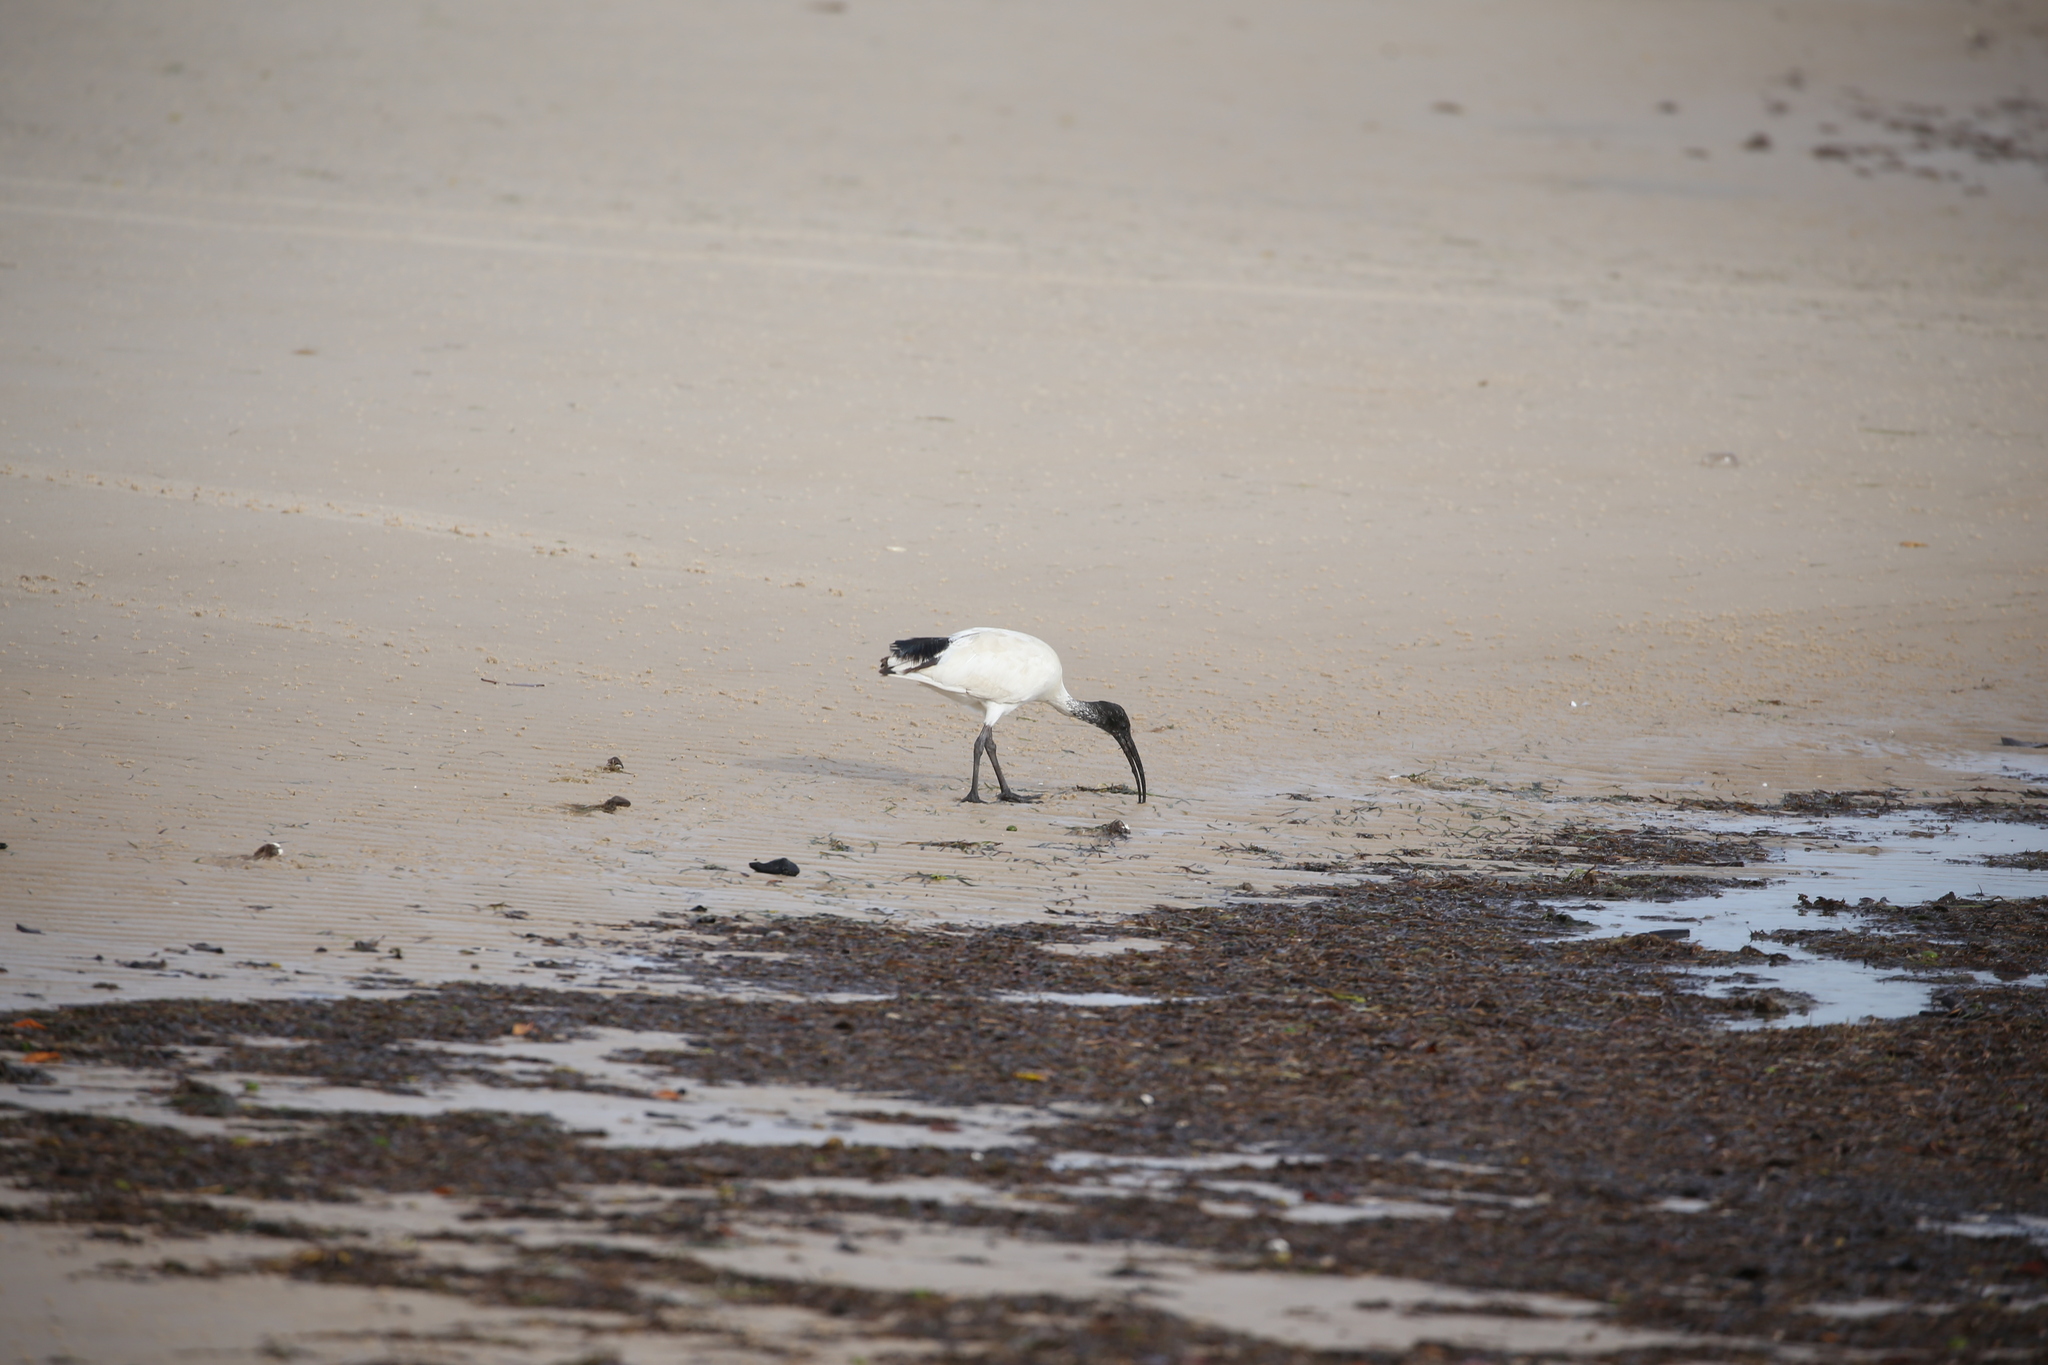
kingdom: Animalia
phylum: Chordata
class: Aves
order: Pelecaniformes
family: Threskiornithidae
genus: Threskiornis
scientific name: Threskiornis molucca
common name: Australian white ibis
